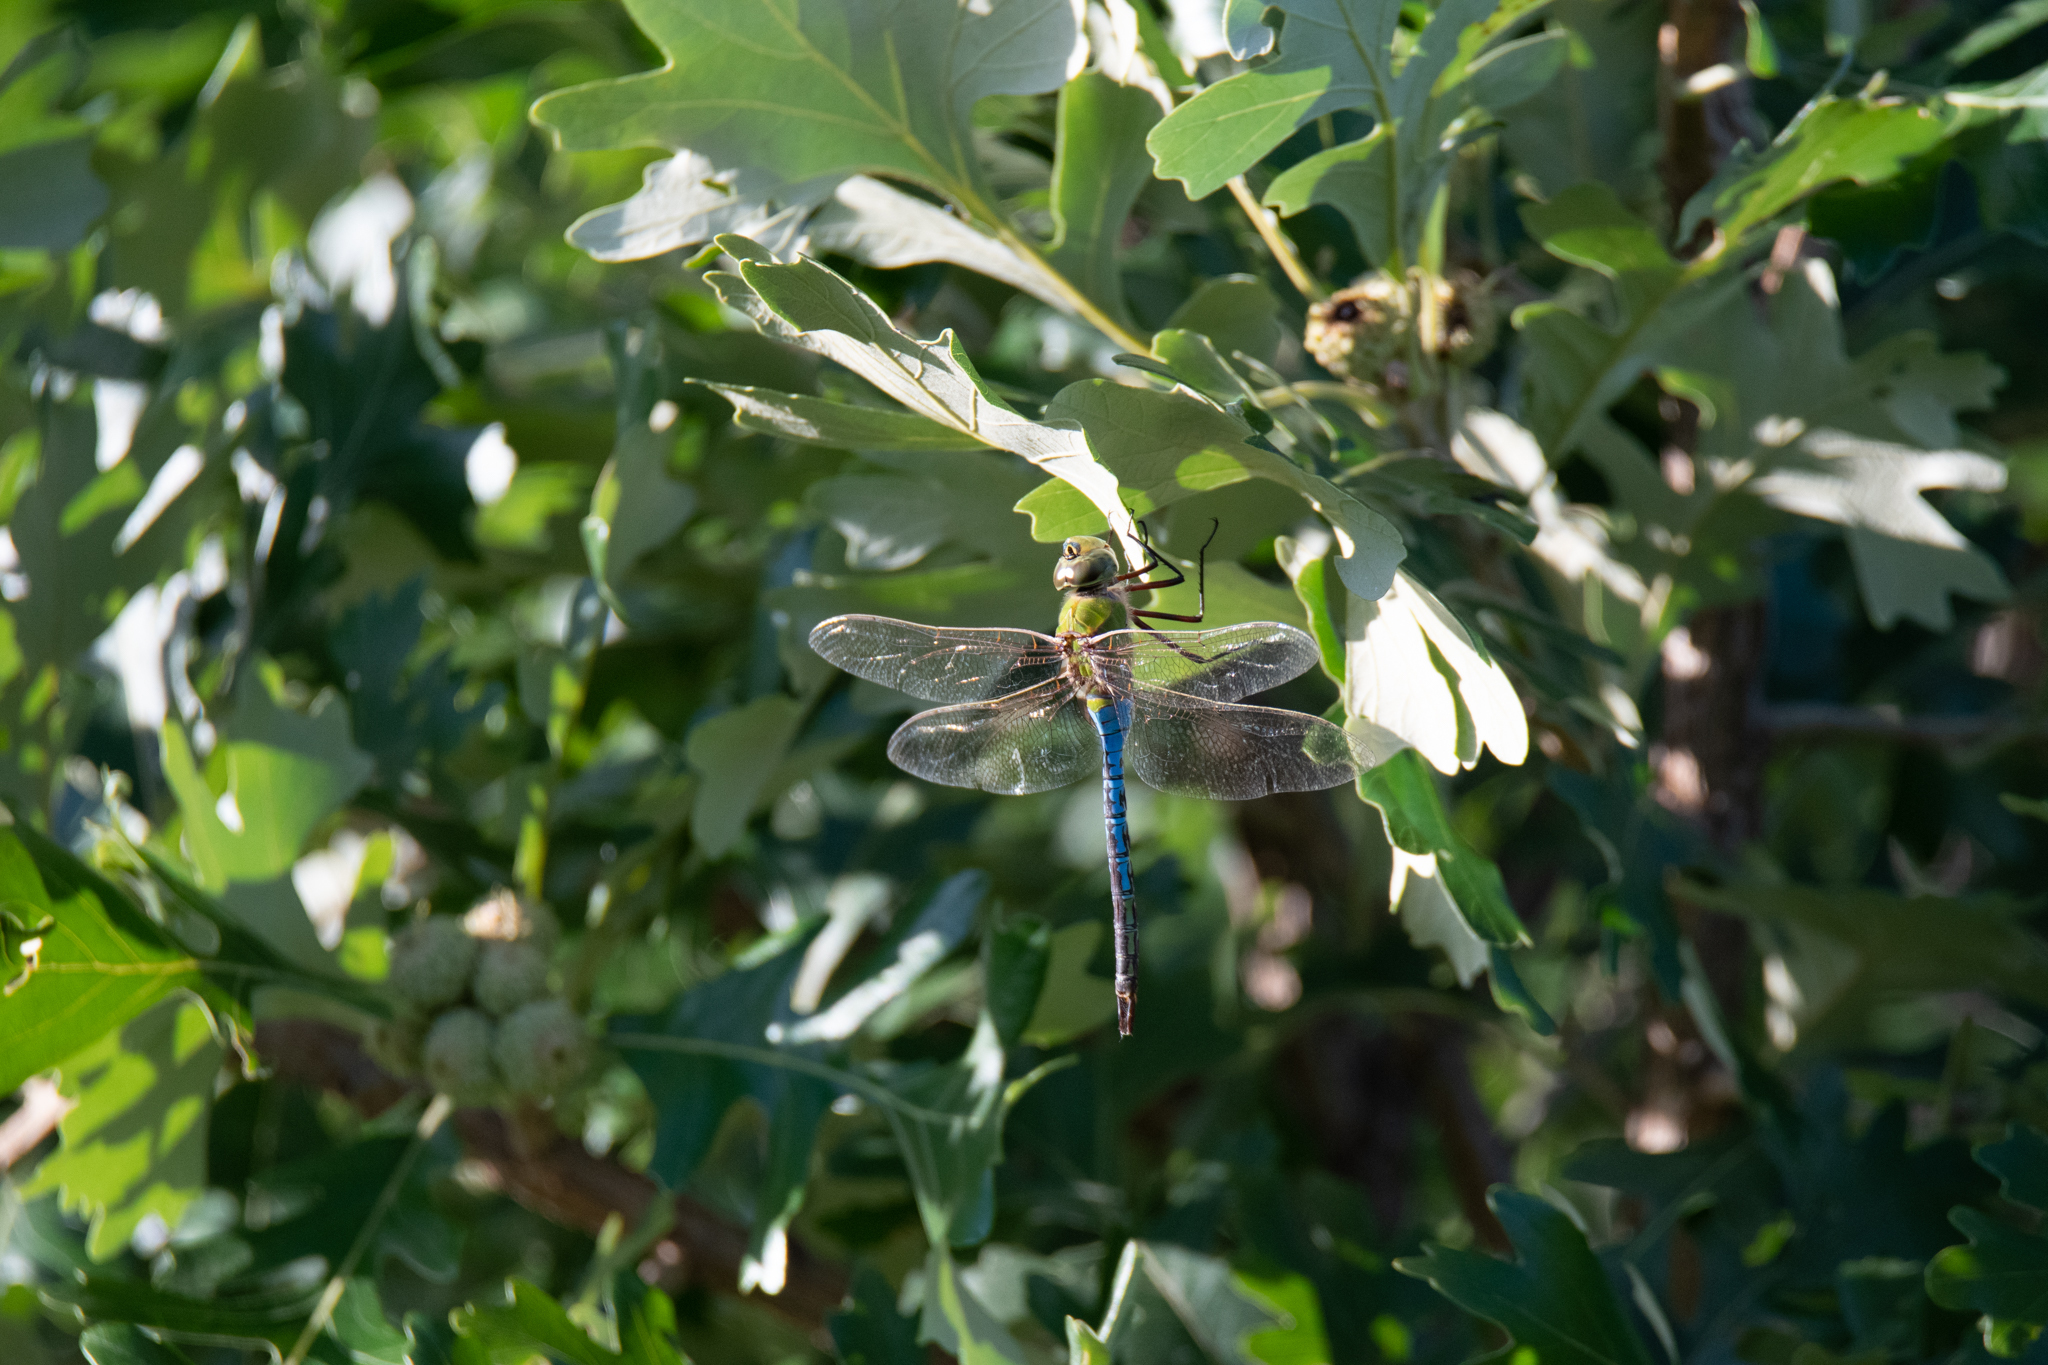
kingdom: Animalia
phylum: Arthropoda
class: Insecta
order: Odonata
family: Aeshnidae
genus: Anax
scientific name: Anax junius
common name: Common green darner
